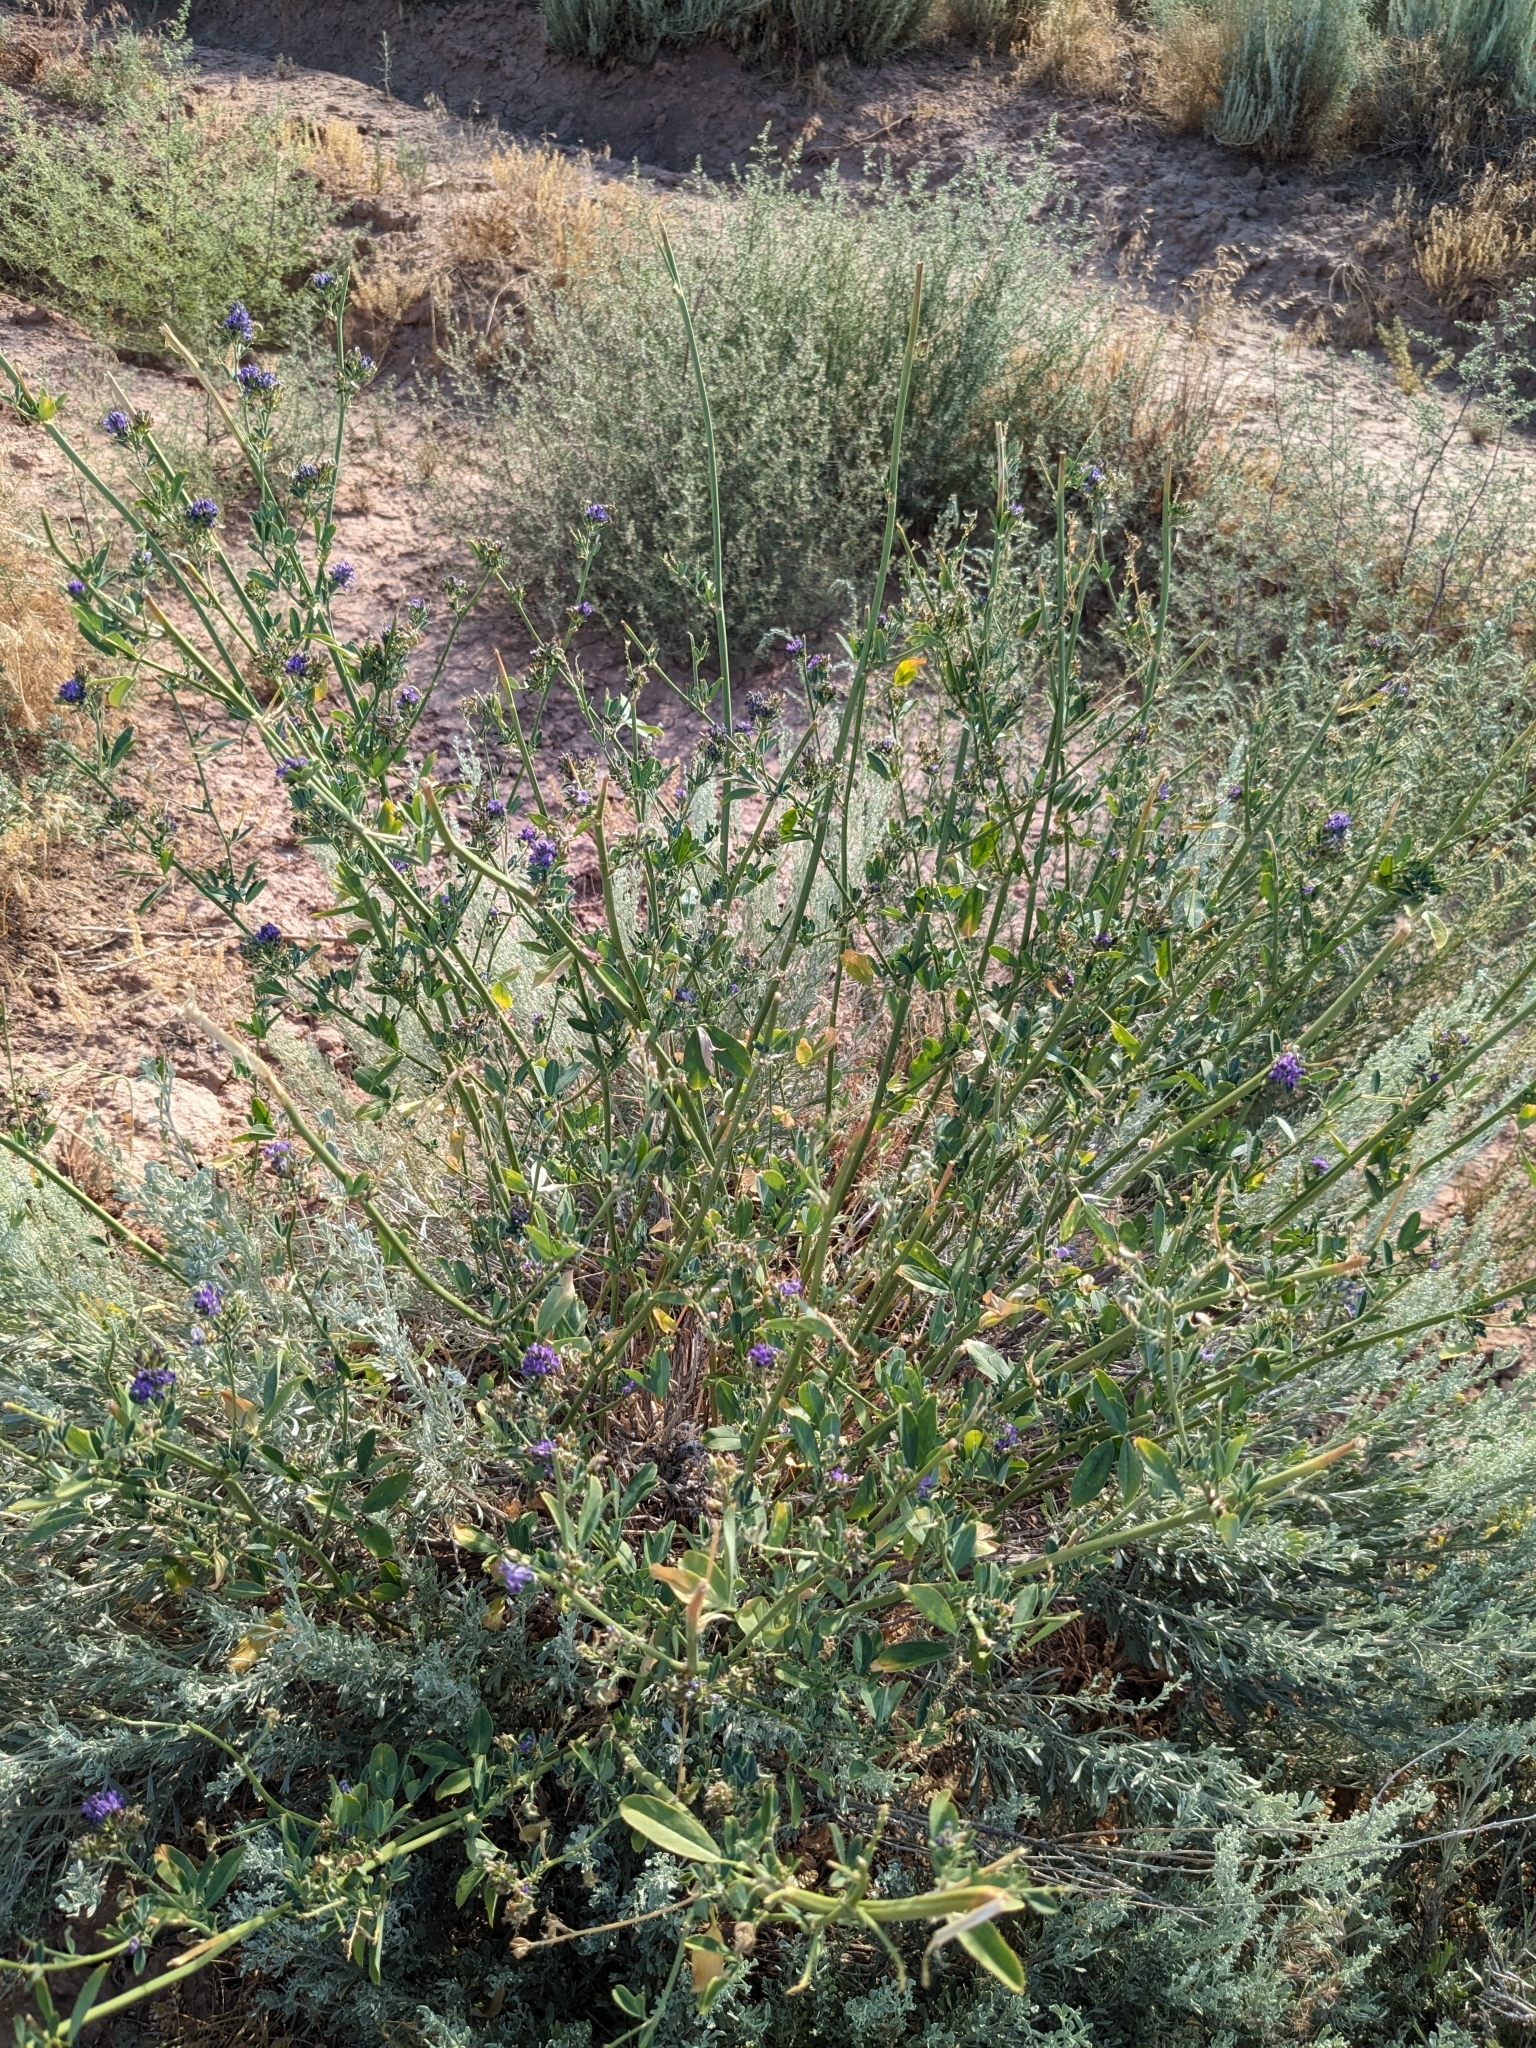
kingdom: Plantae
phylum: Tracheophyta
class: Magnoliopsida
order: Fabales
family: Fabaceae
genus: Medicago
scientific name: Medicago sativa
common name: Alfalfa
